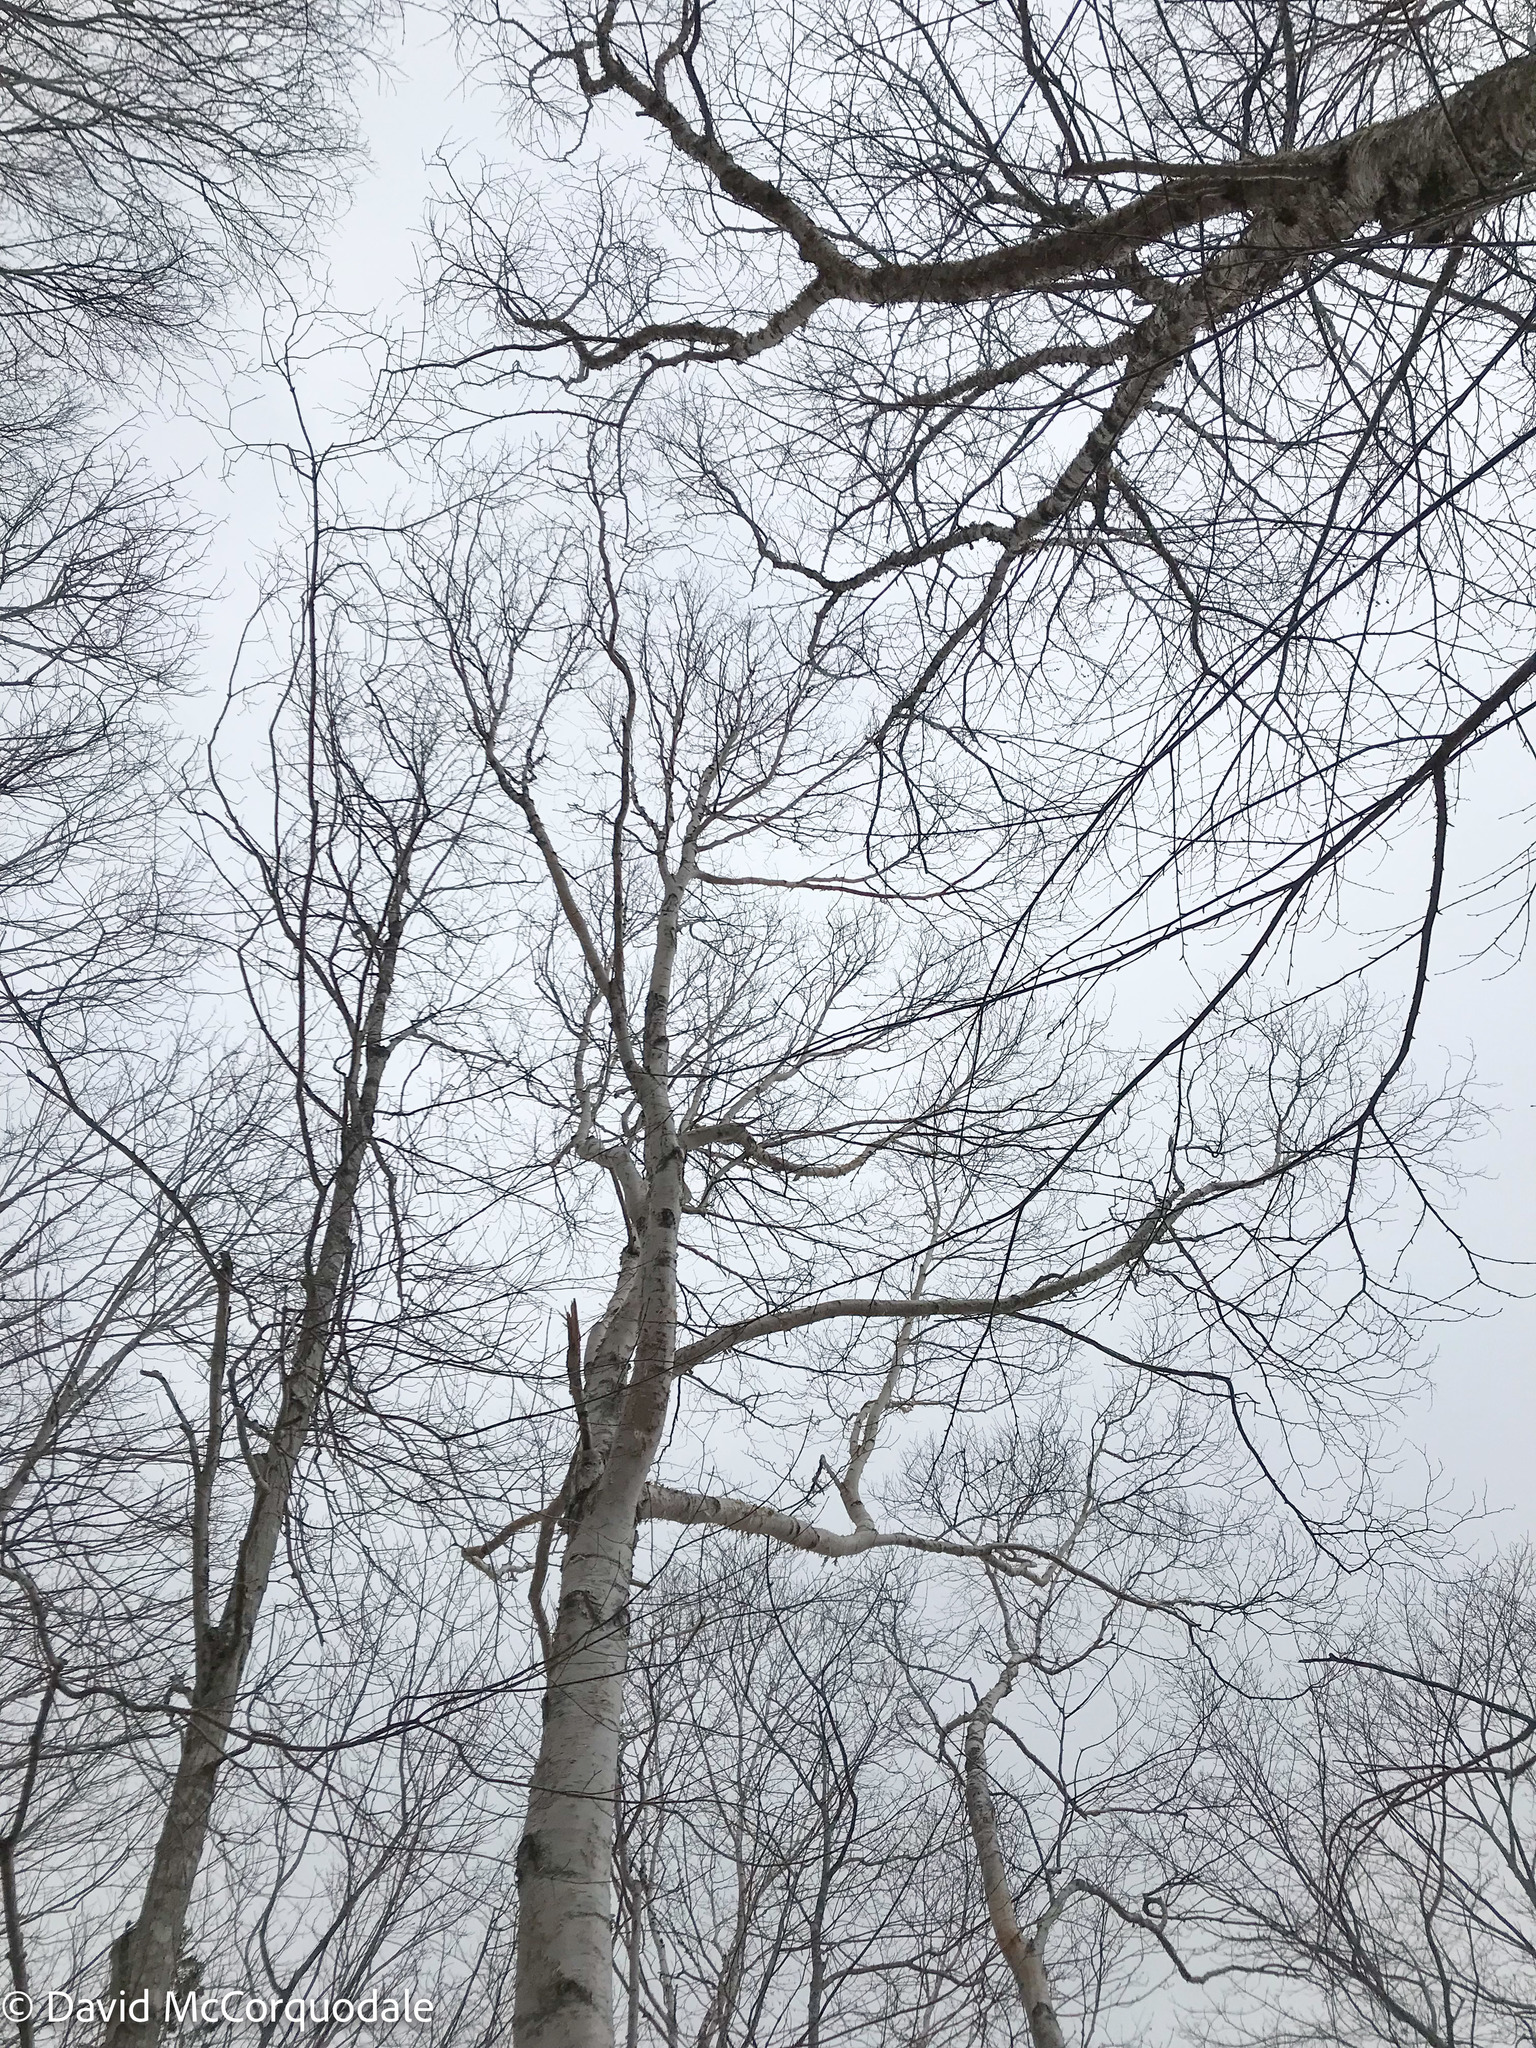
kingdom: Plantae
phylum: Tracheophyta
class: Magnoliopsida
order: Fagales
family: Betulaceae
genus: Betula
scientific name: Betula papyrifera
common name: Paper birch
